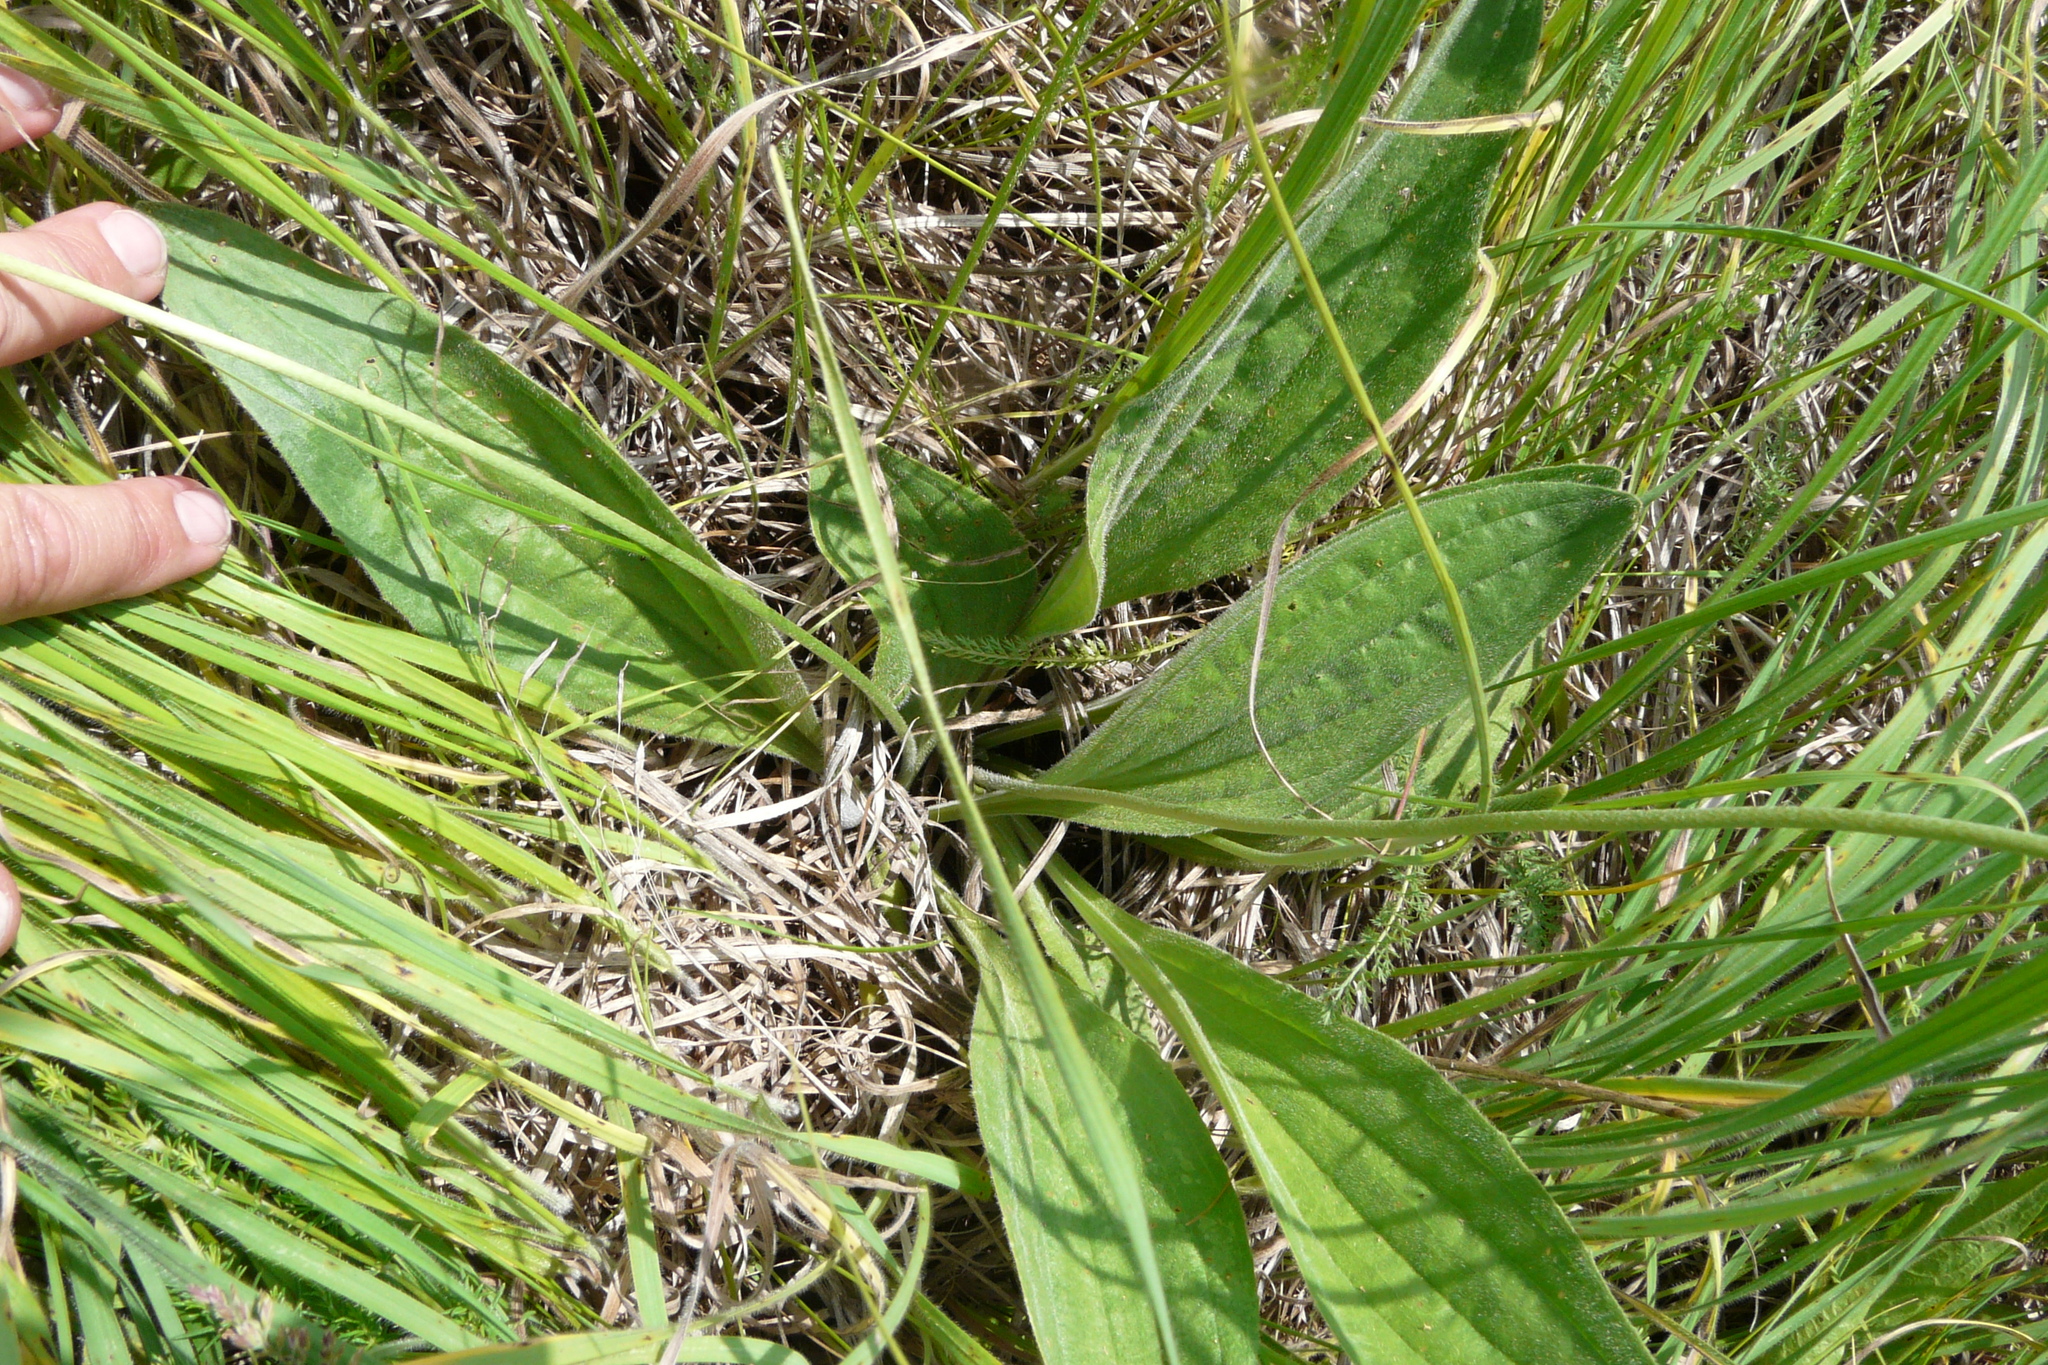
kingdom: Plantae
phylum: Tracheophyta
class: Magnoliopsida
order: Lamiales
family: Plantaginaceae
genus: Plantago
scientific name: Plantago urvillei
